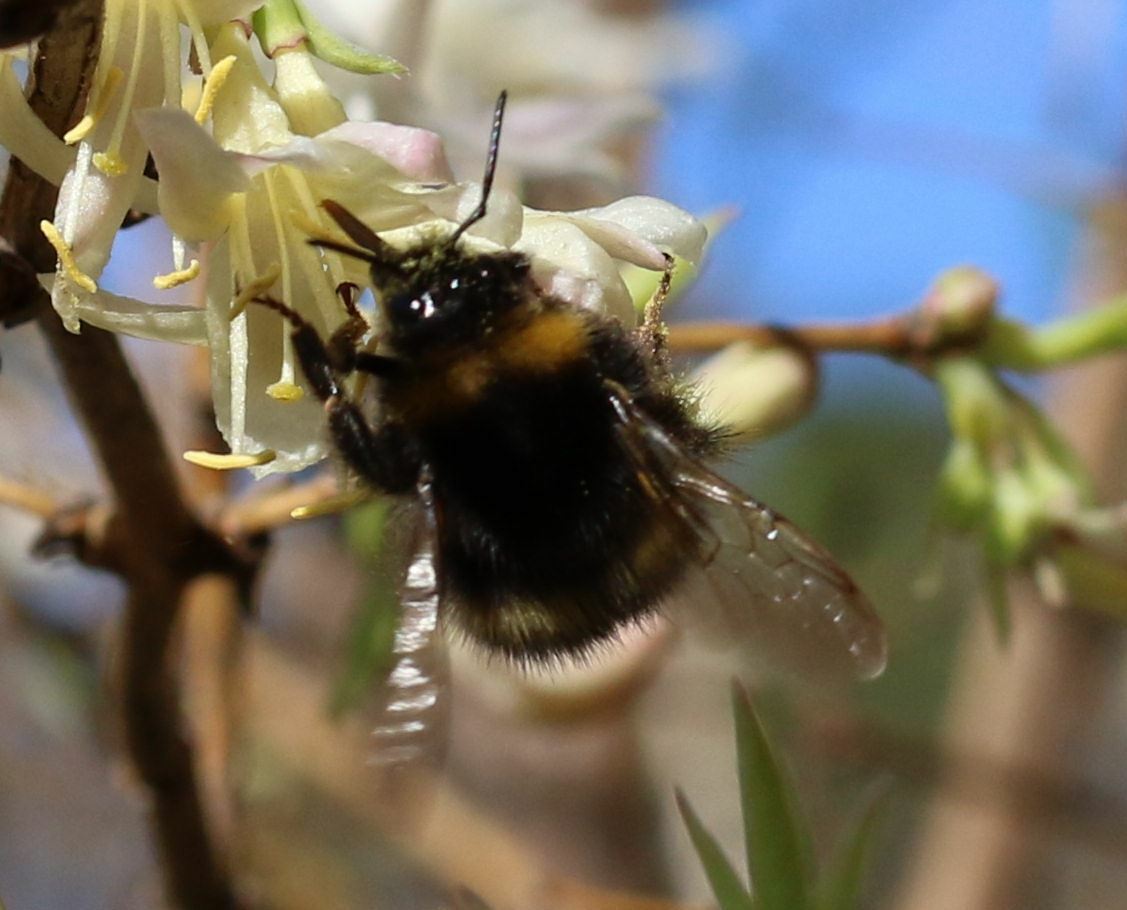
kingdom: Animalia
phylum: Arthropoda
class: Insecta
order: Hymenoptera
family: Apidae
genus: Bombus
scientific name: Bombus pratorum
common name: Early humble-bee
